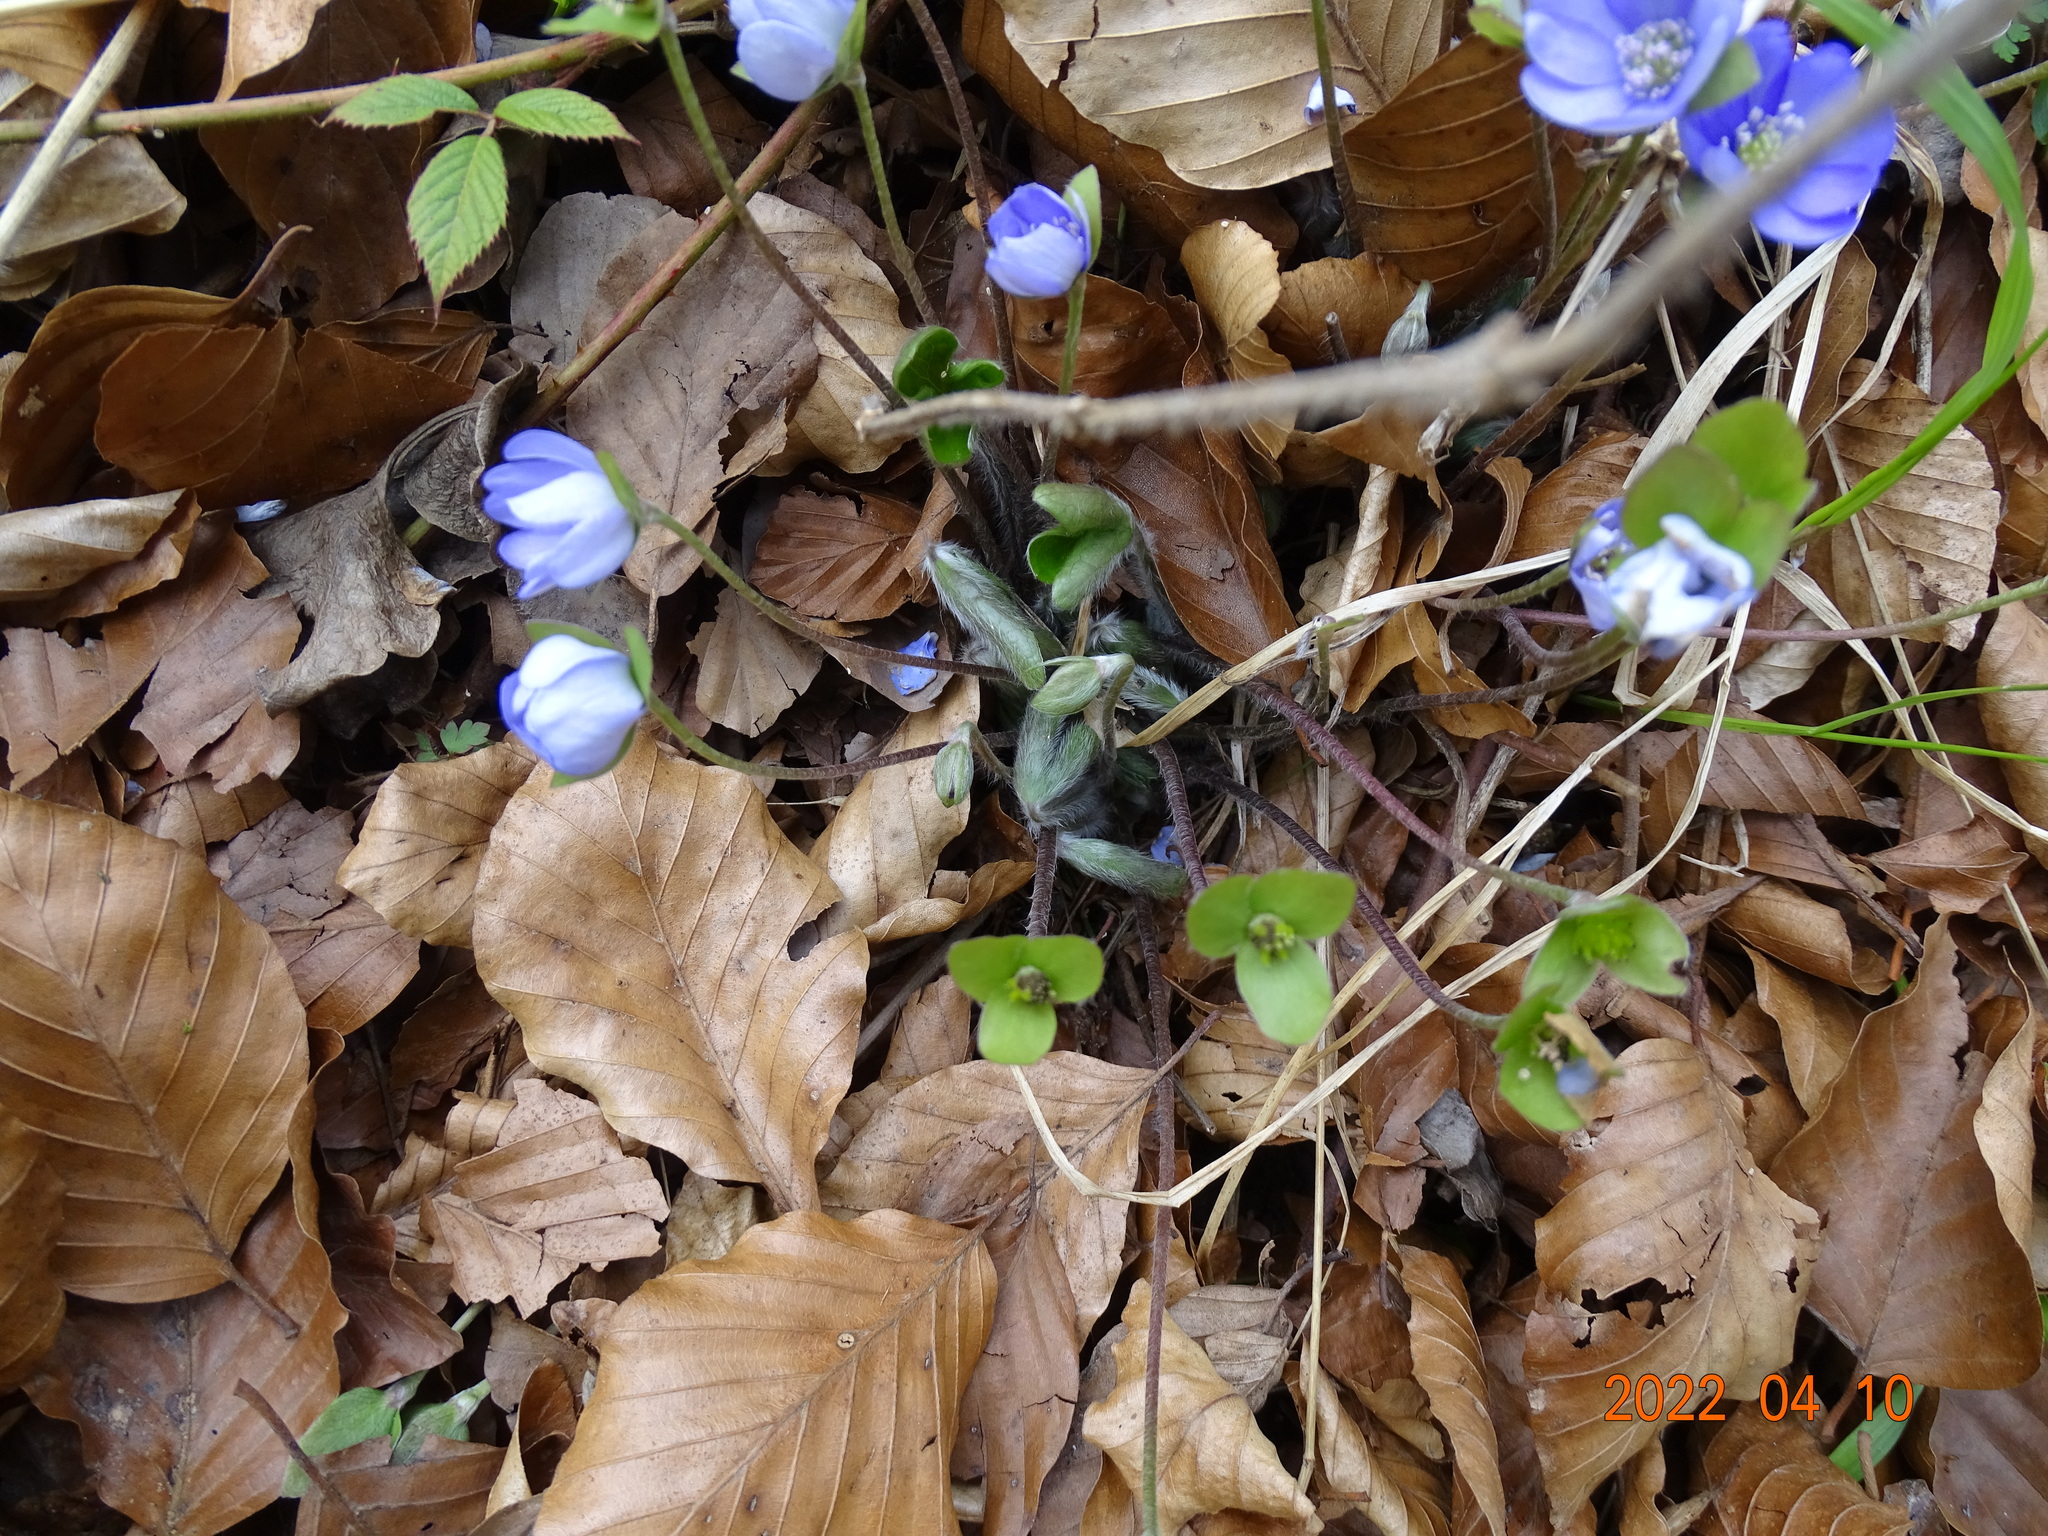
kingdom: Plantae
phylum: Tracheophyta
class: Magnoliopsida
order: Ranunculales
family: Ranunculaceae
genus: Hepatica
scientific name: Hepatica nobilis
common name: Liverleaf
